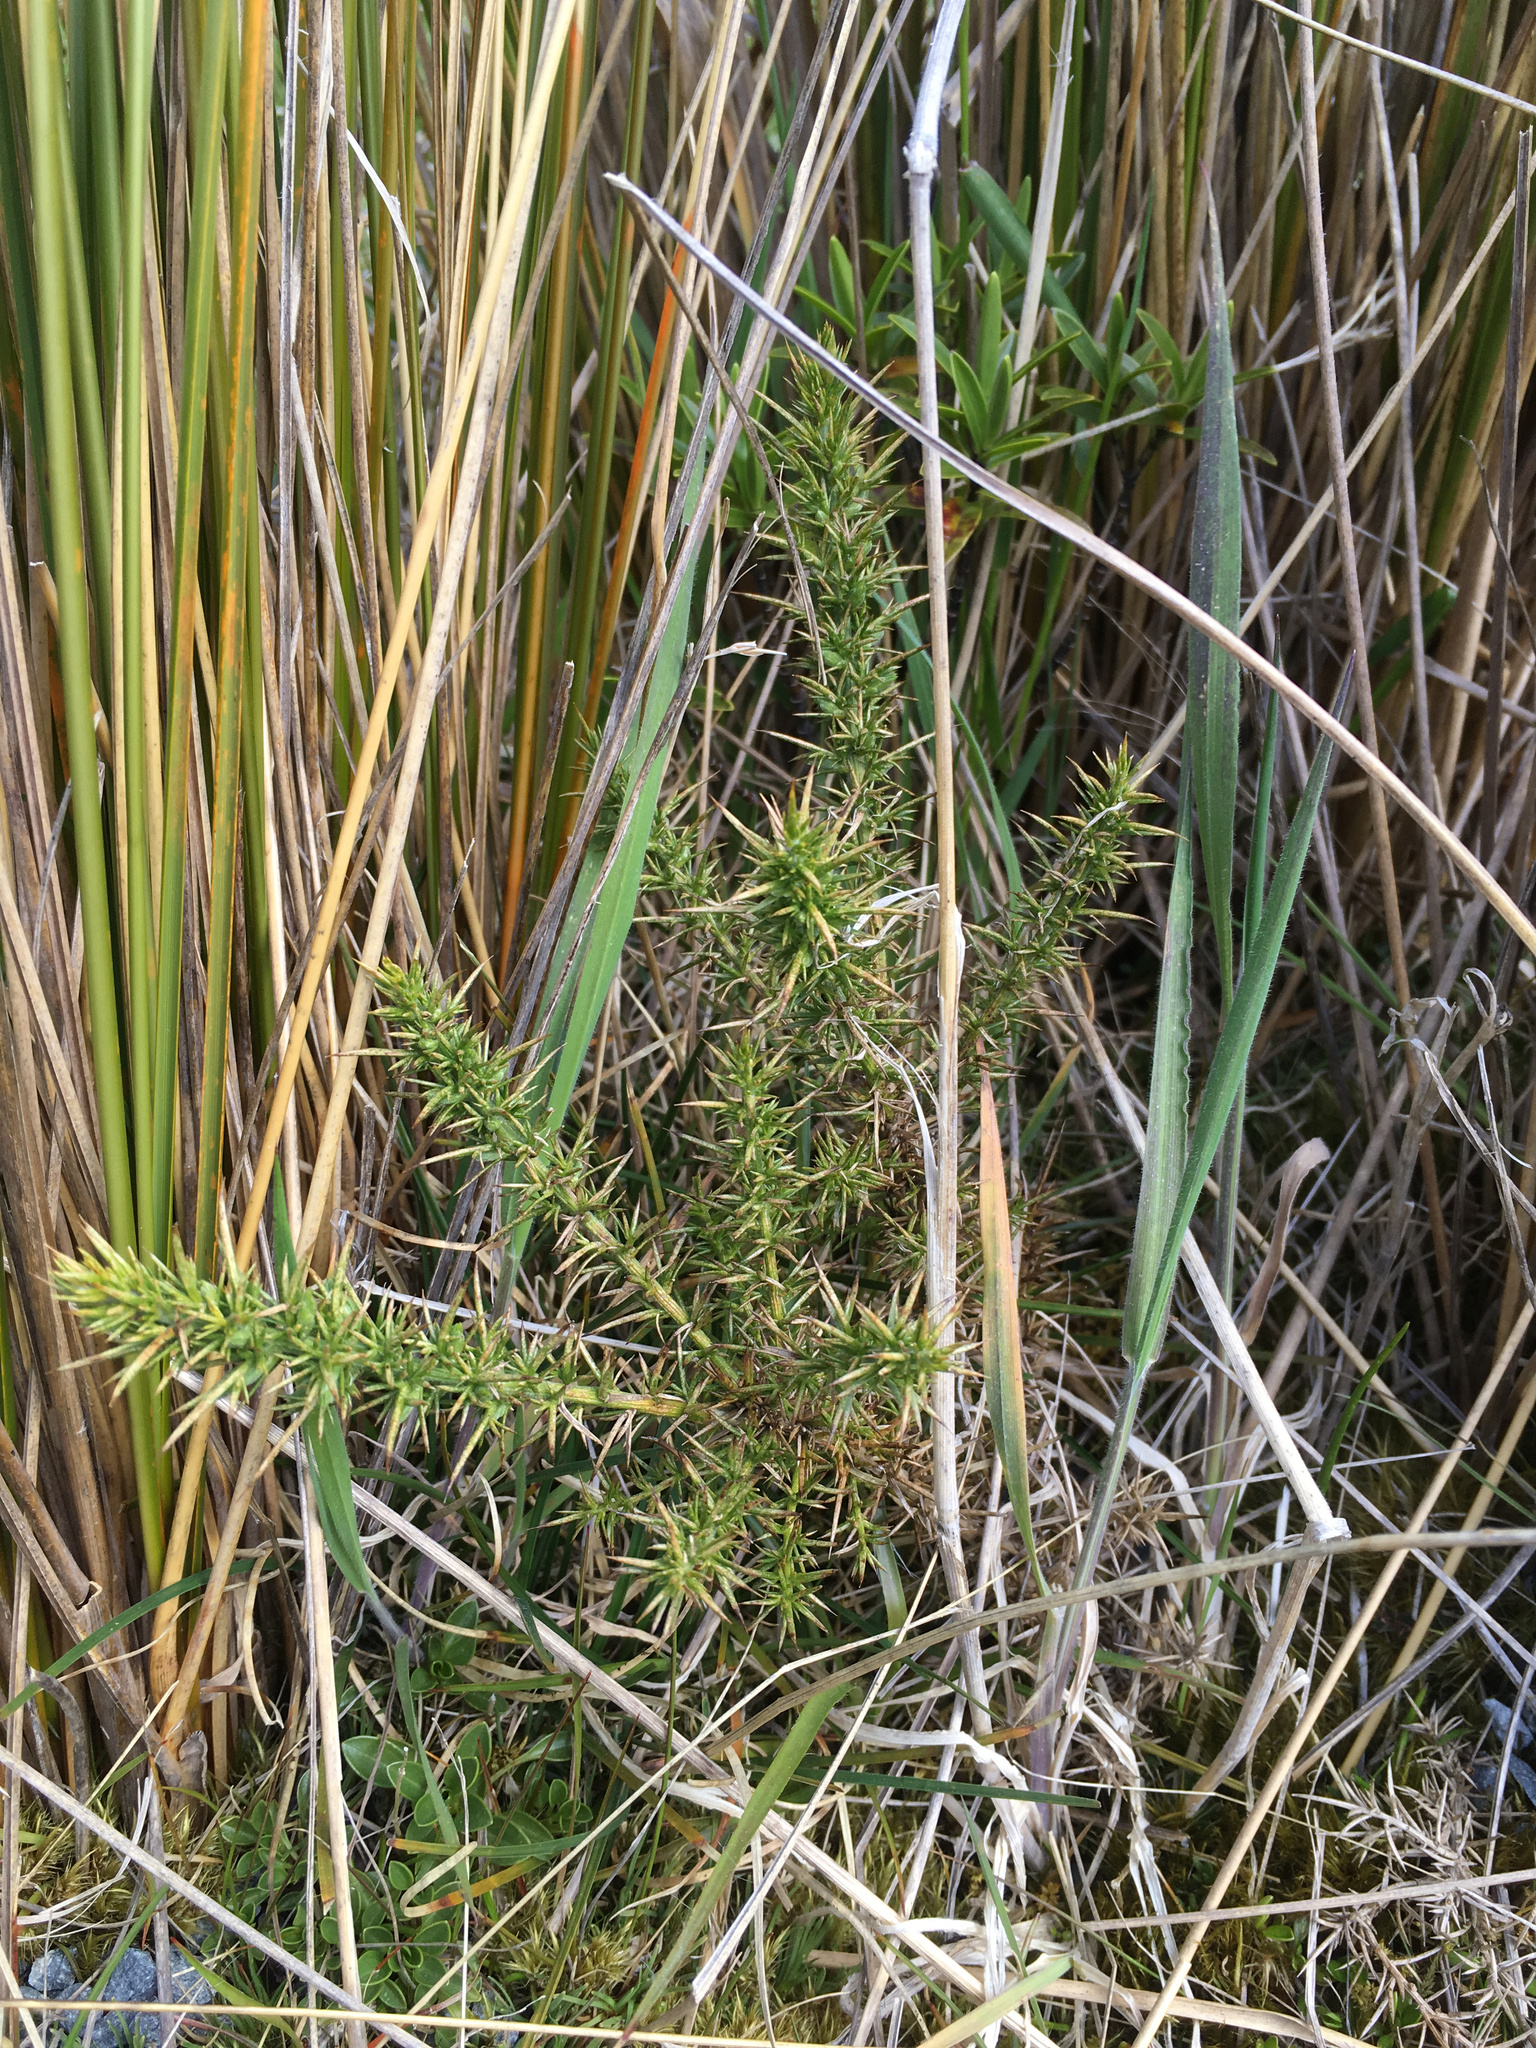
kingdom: Plantae
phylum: Tracheophyta
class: Magnoliopsida
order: Fabales
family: Fabaceae
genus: Ulex
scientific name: Ulex europaeus
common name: Common gorse
